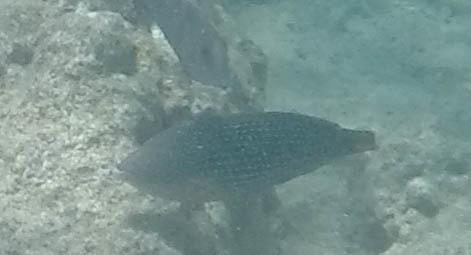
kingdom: Animalia
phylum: Chordata
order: Perciformes
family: Labridae
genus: Anampses
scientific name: Anampses cuvier
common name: Pearl wrasse
